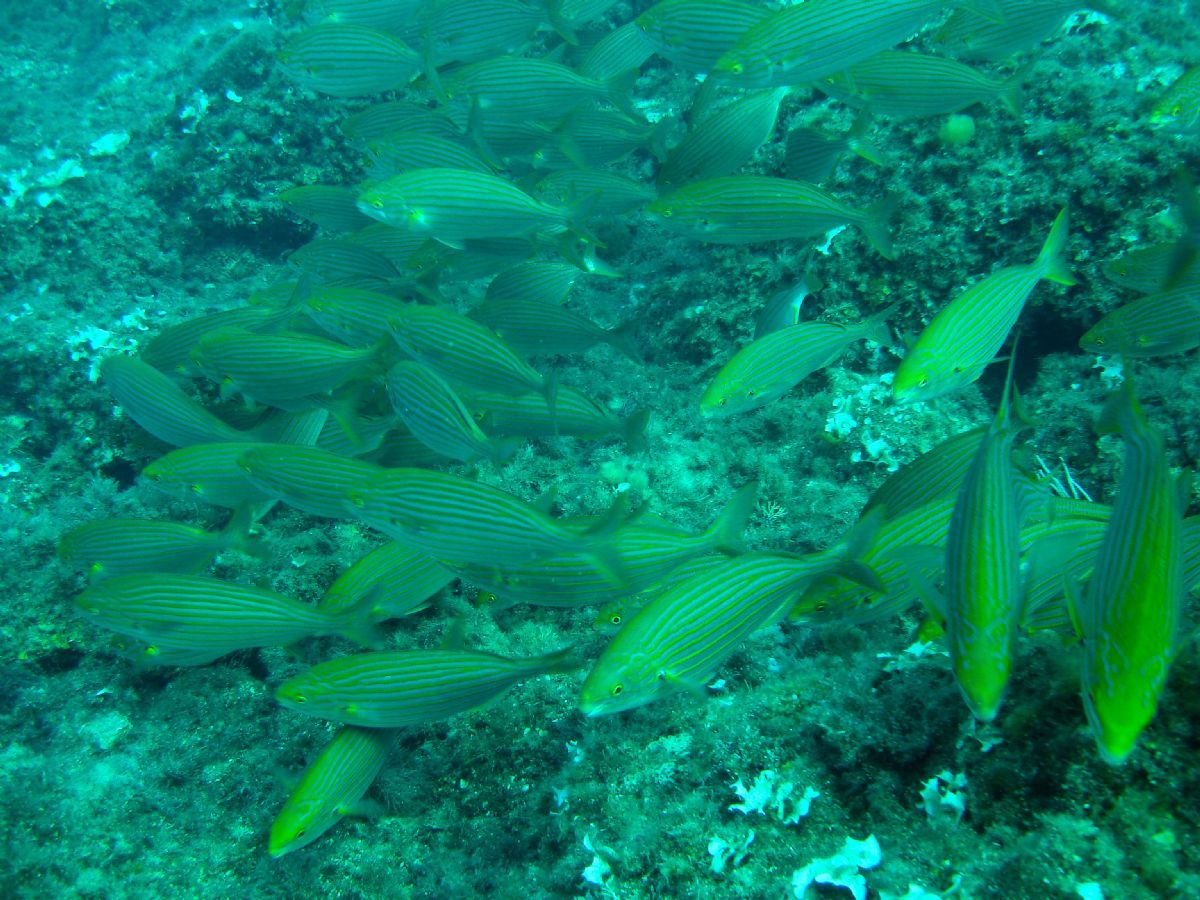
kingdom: Animalia
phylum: Chordata
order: Perciformes
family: Sparidae
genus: Sarpa
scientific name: Sarpa salpa
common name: Salema
